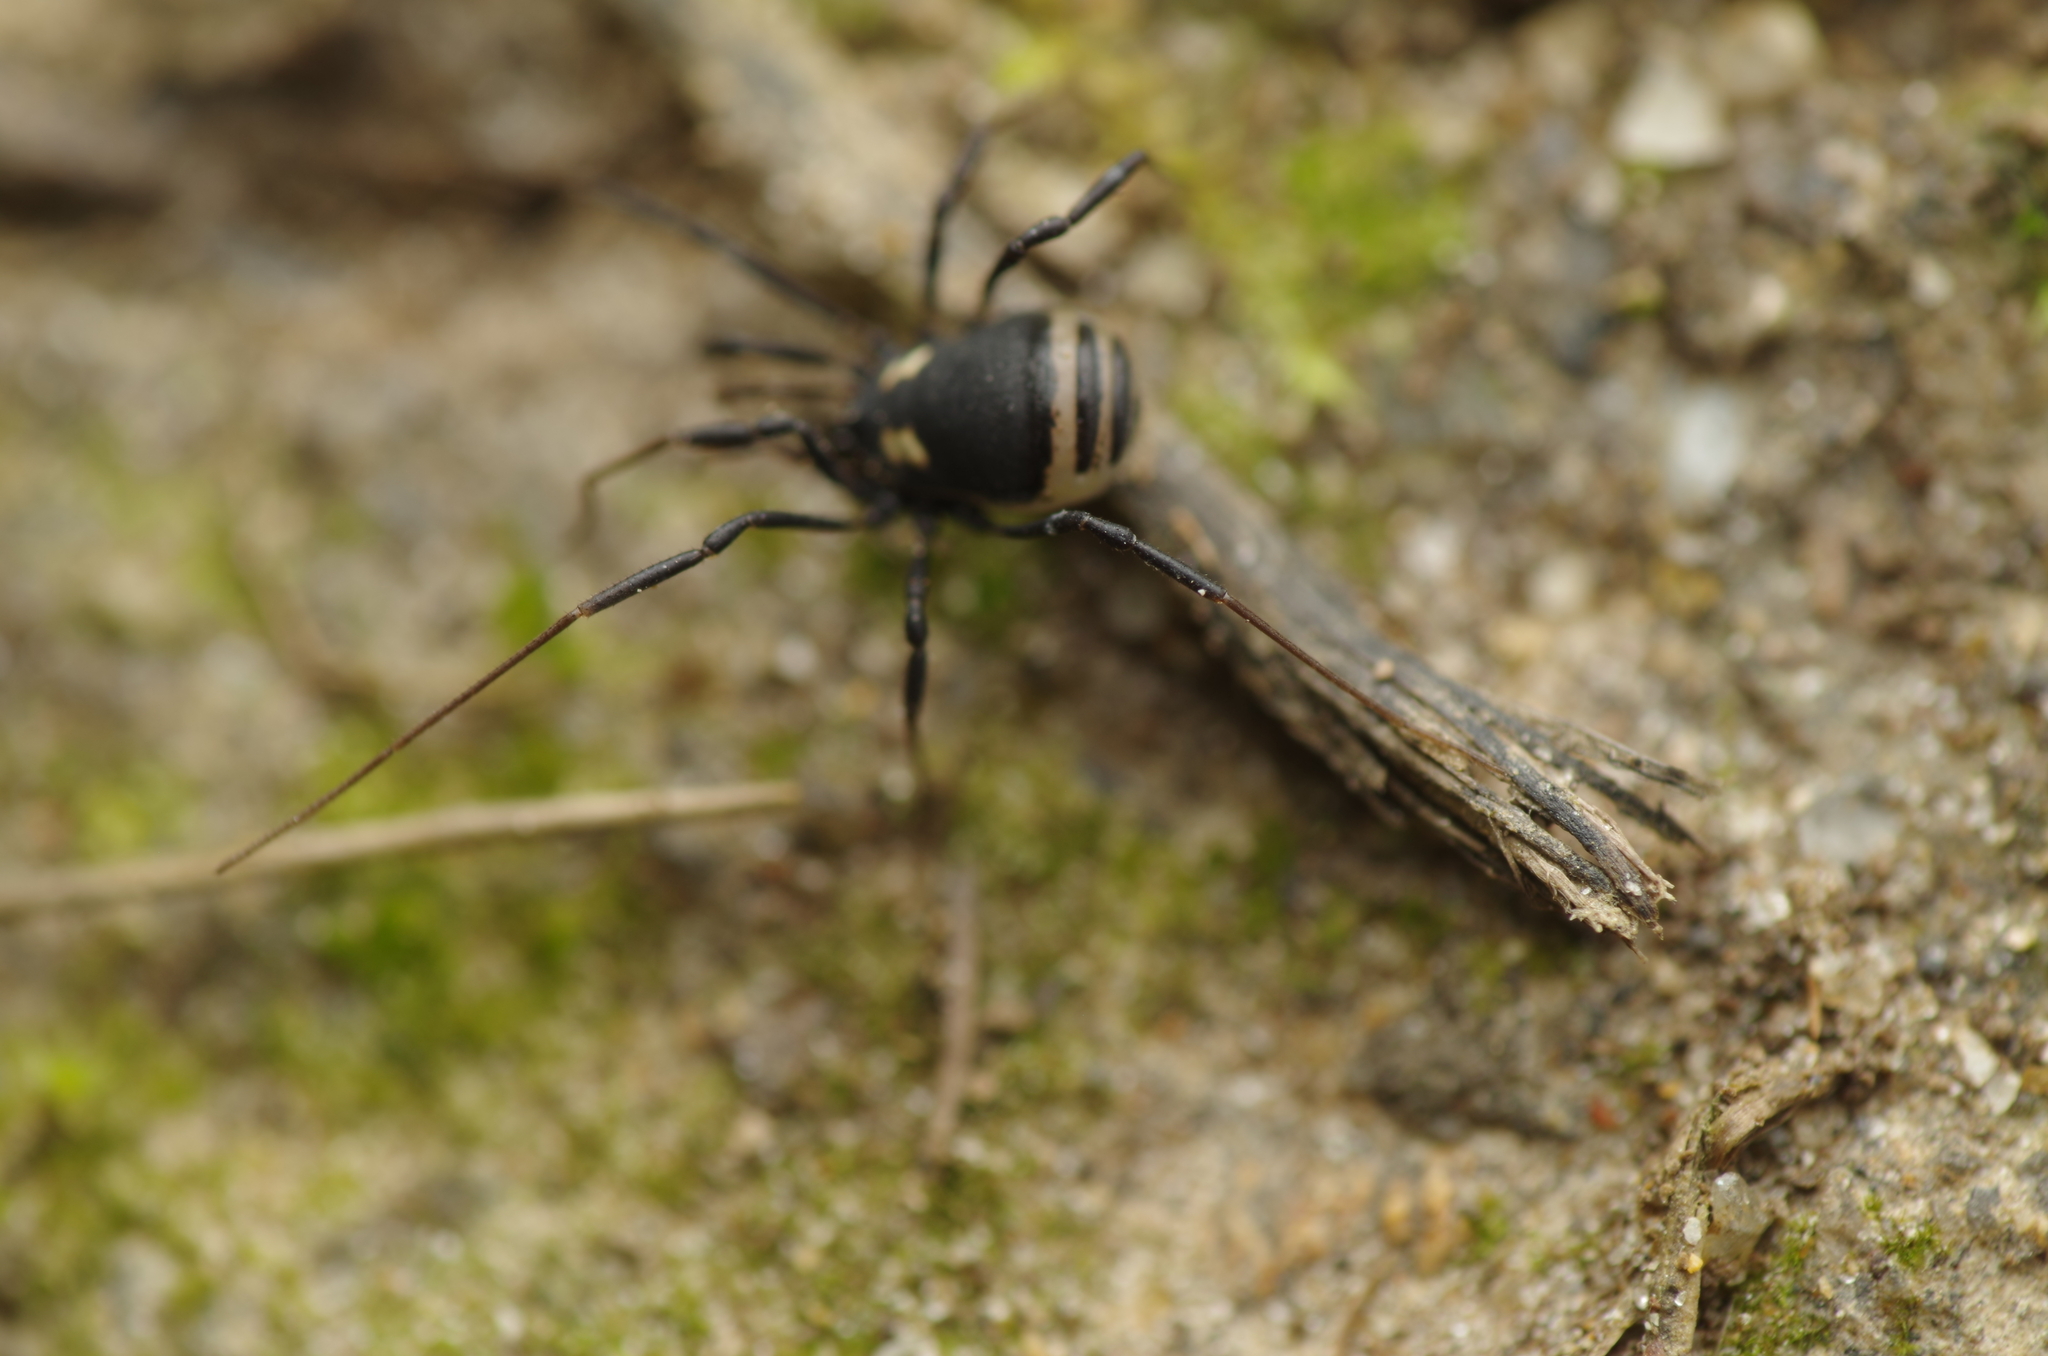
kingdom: Animalia
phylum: Arthropoda
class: Arachnida
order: Opiliones
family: Nemastomatidae
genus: Nemastoma
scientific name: Nemastoma bimaculatum
